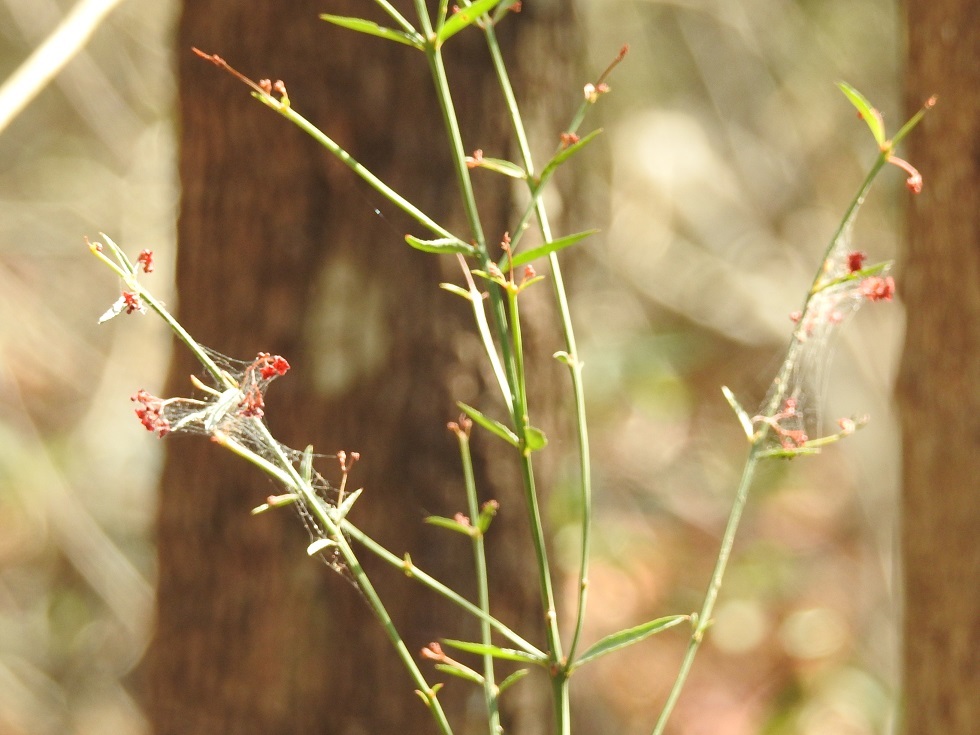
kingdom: Plantae
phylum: Tracheophyta
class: Magnoliopsida
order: Celastrales
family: Celastraceae
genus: Crossopetalum
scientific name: Crossopetalum uragoga
